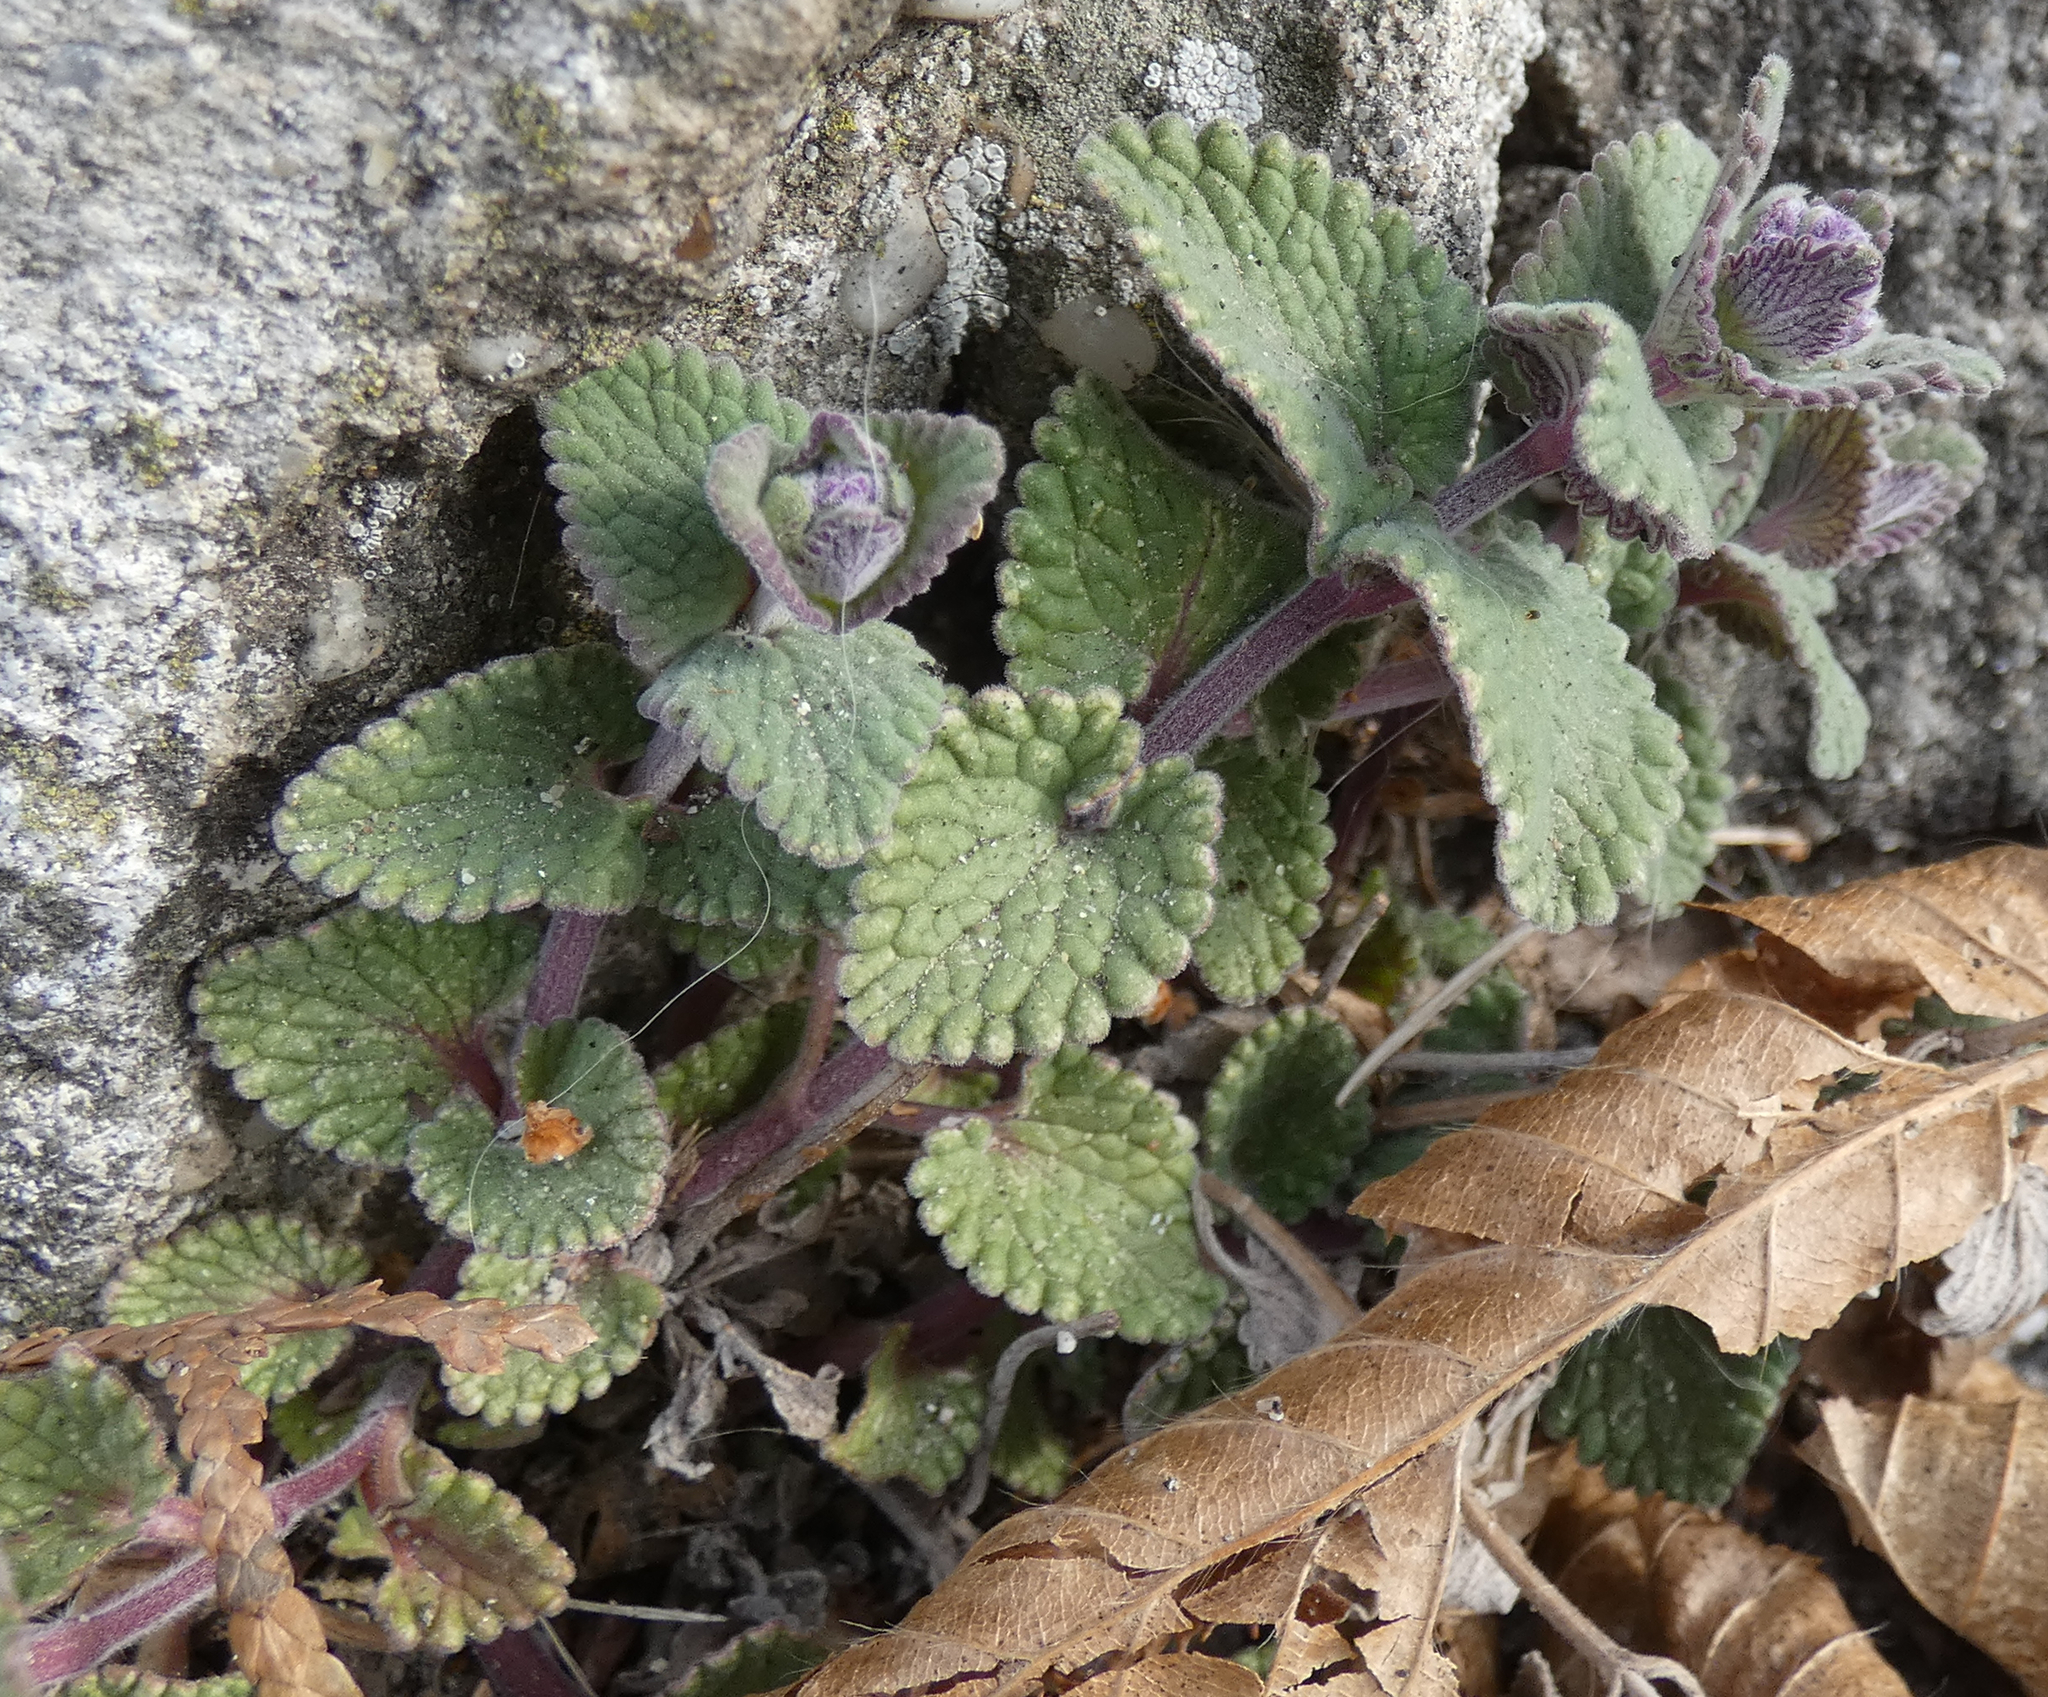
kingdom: Plantae
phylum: Tracheophyta
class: Magnoliopsida
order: Lamiales
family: Lamiaceae
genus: Nepeta
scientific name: Nepeta racemosa
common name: Raceme catnip
